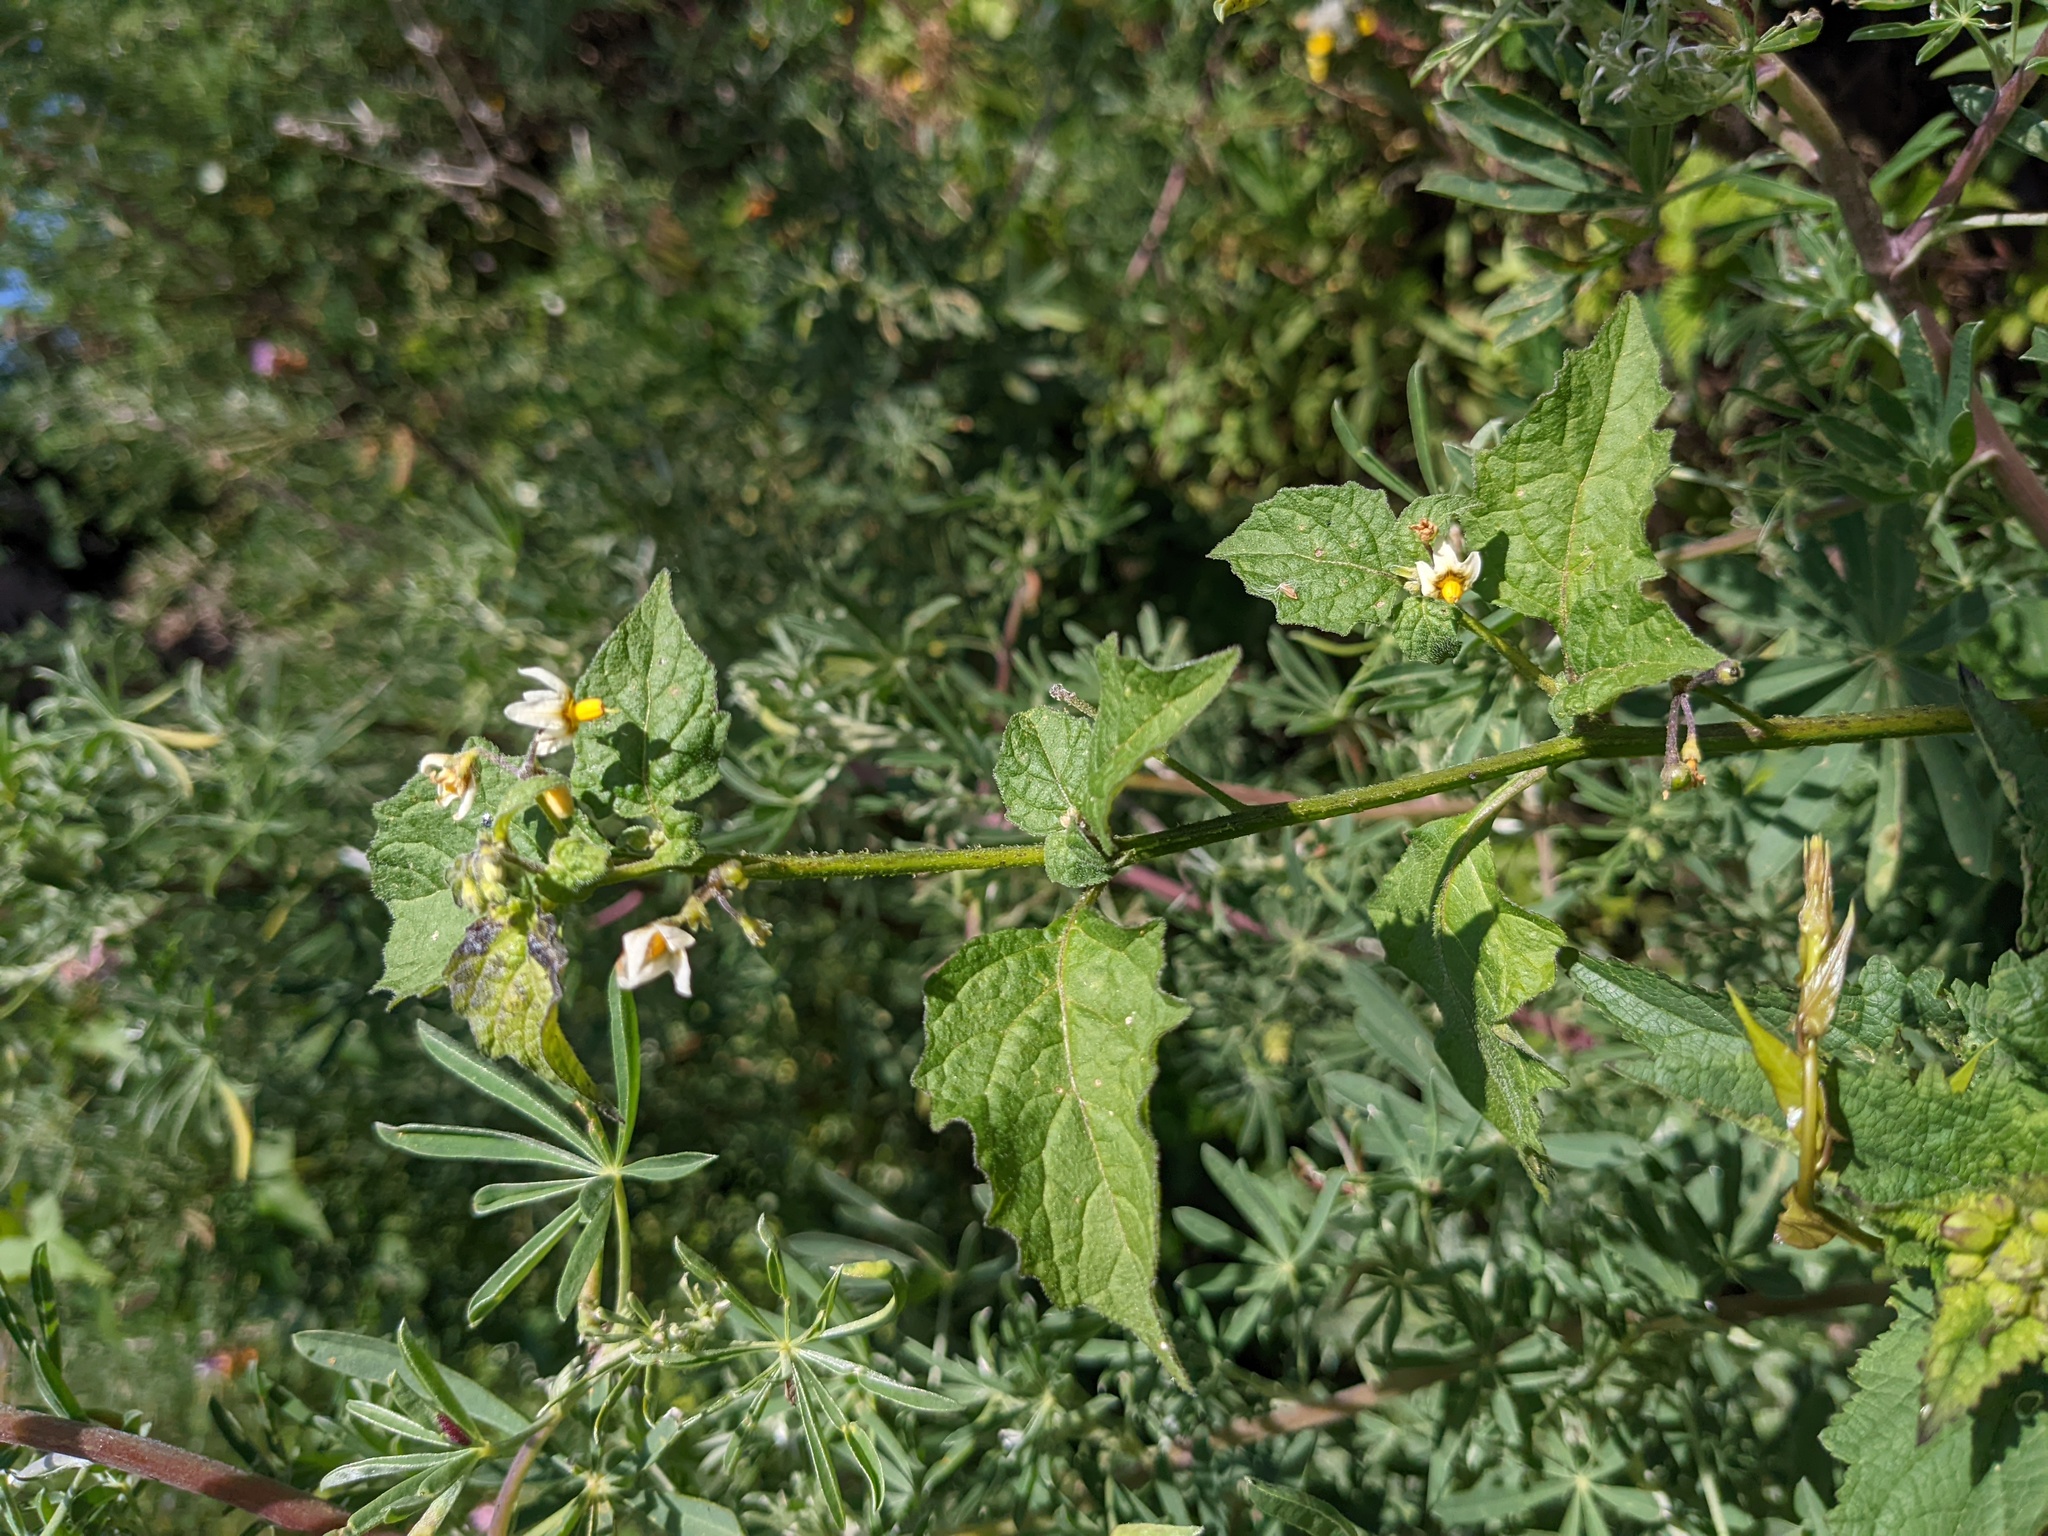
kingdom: Plantae
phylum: Tracheophyta
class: Magnoliopsida
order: Solanales
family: Solanaceae
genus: Solanum
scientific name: Solanum douglasii
